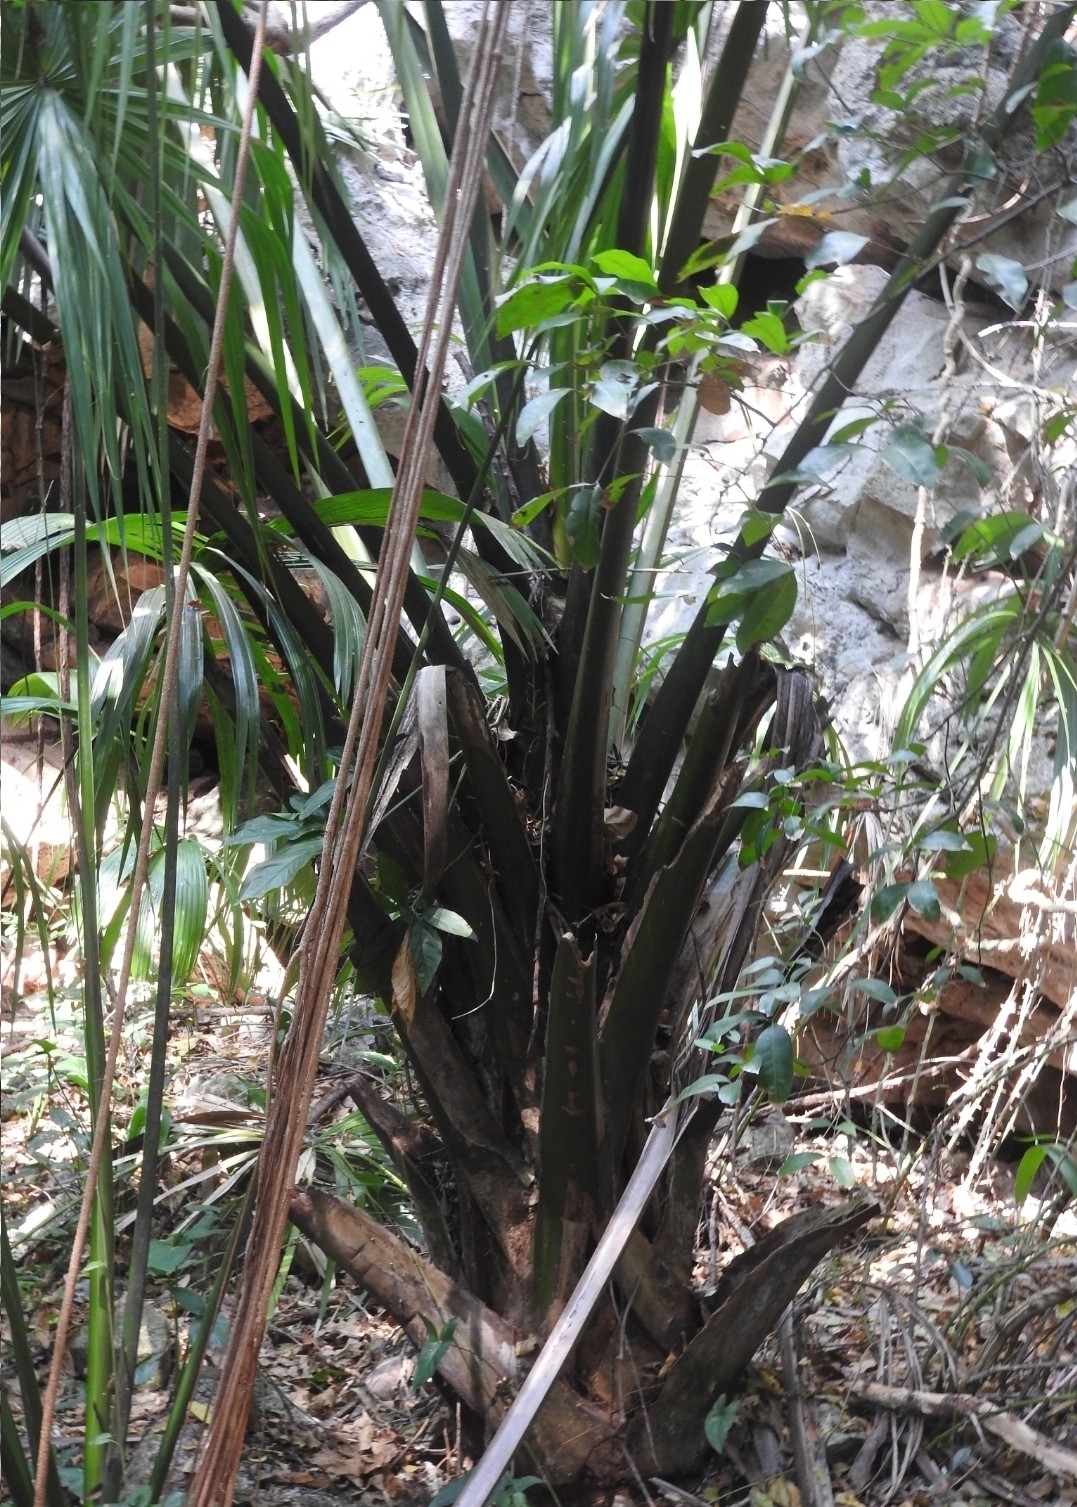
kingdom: Plantae
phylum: Tracheophyta
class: Liliopsida
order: Arecales
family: Arecaceae
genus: Sabal
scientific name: Sabal yapa
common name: Thatch palm
